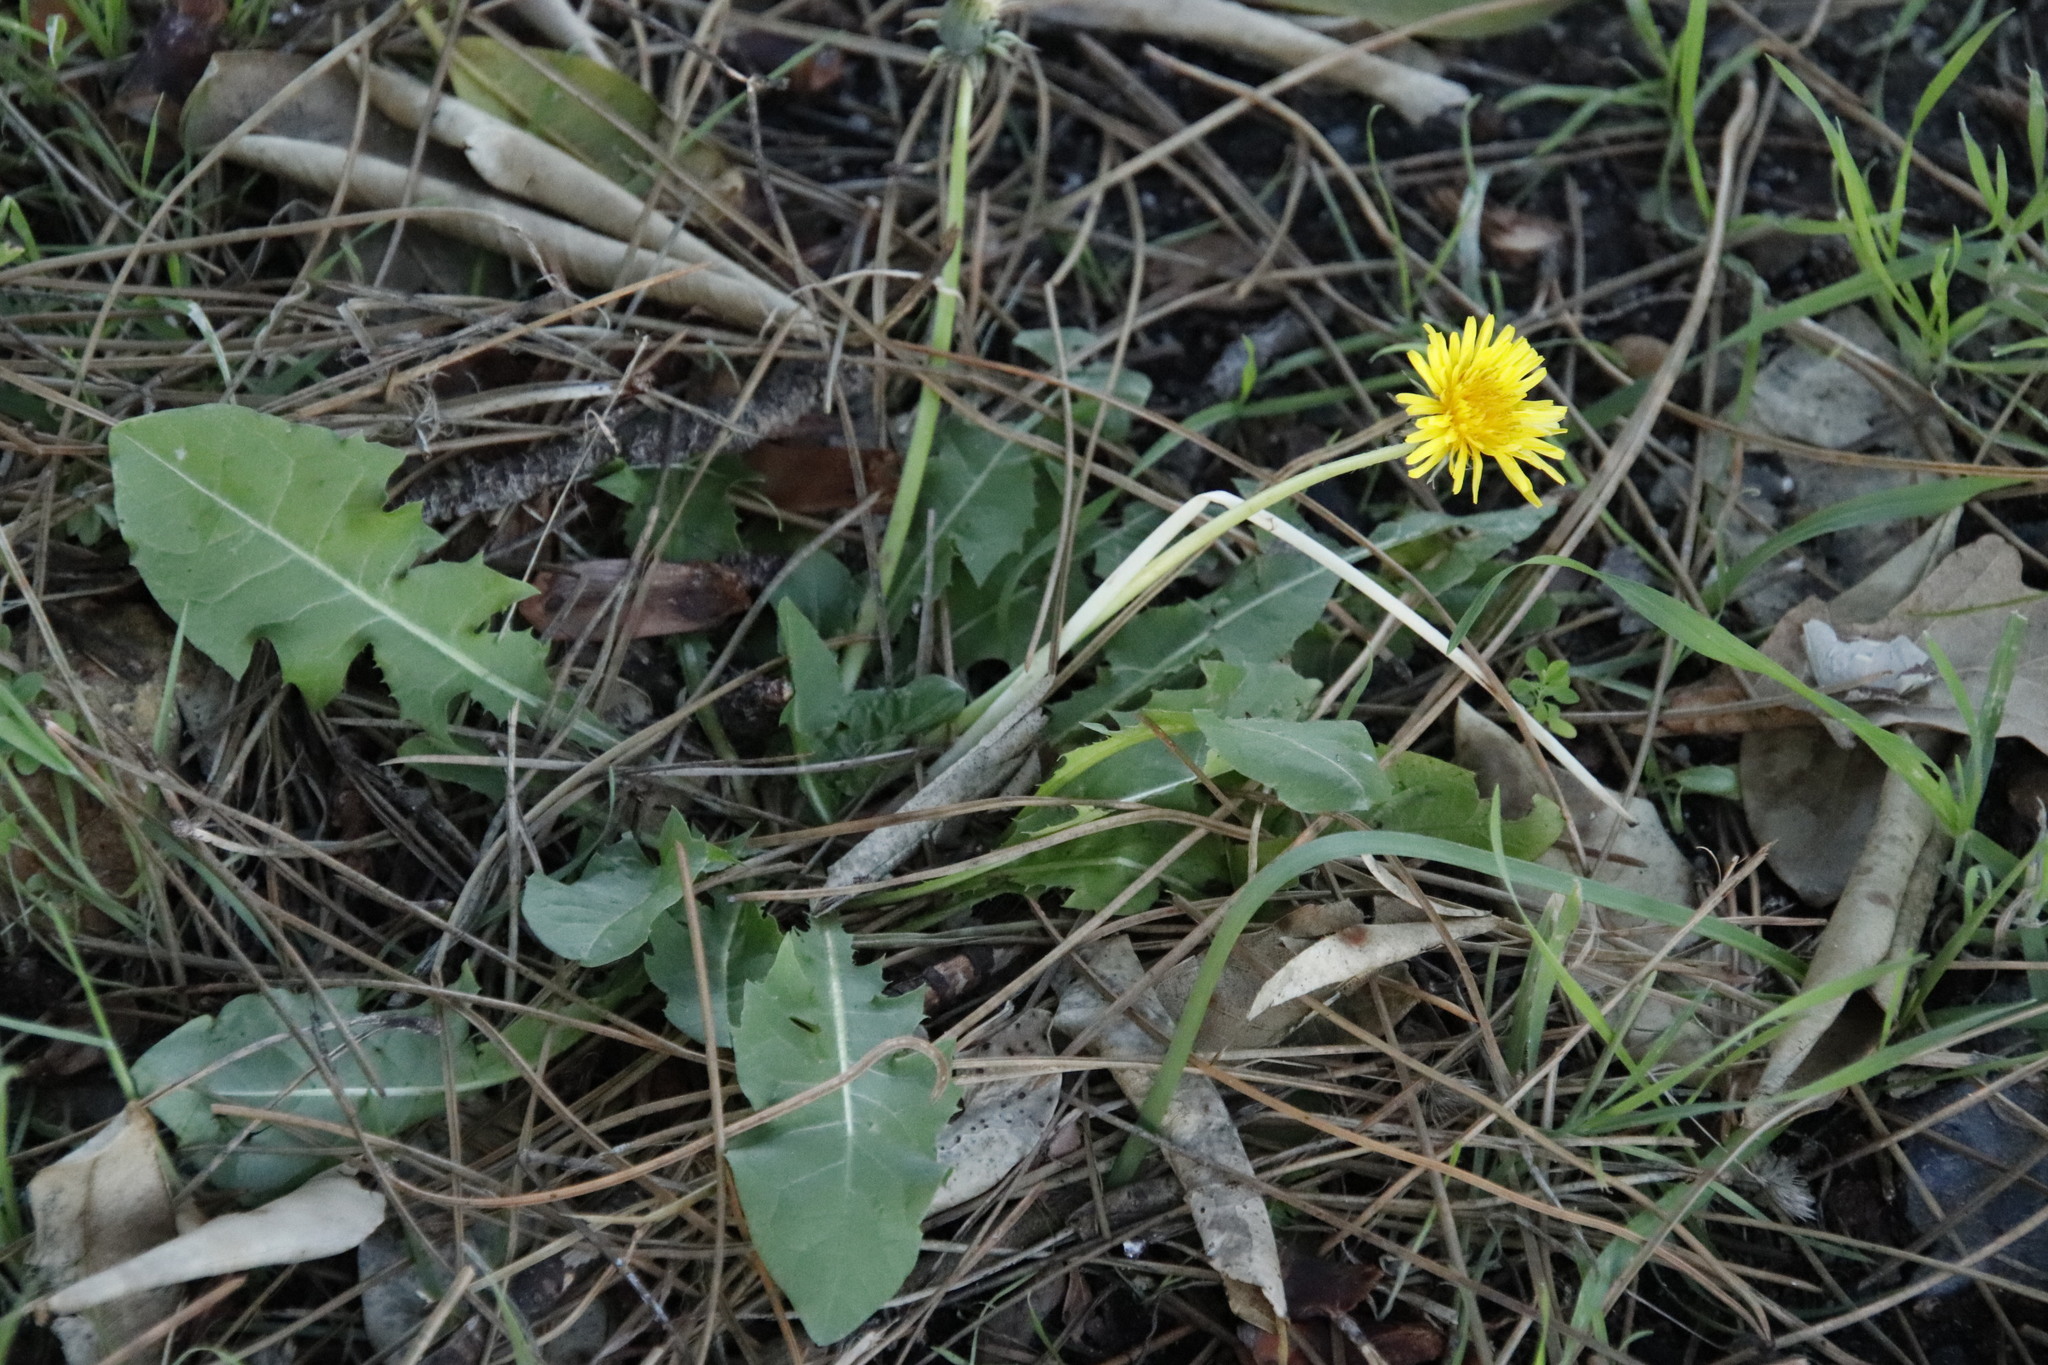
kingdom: Plantae
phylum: Tracheophyta
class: Magnoliopsida
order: Asterales
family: Asteraceae
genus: Taraxacum
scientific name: Taraxacum officinale
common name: Common dandelion
